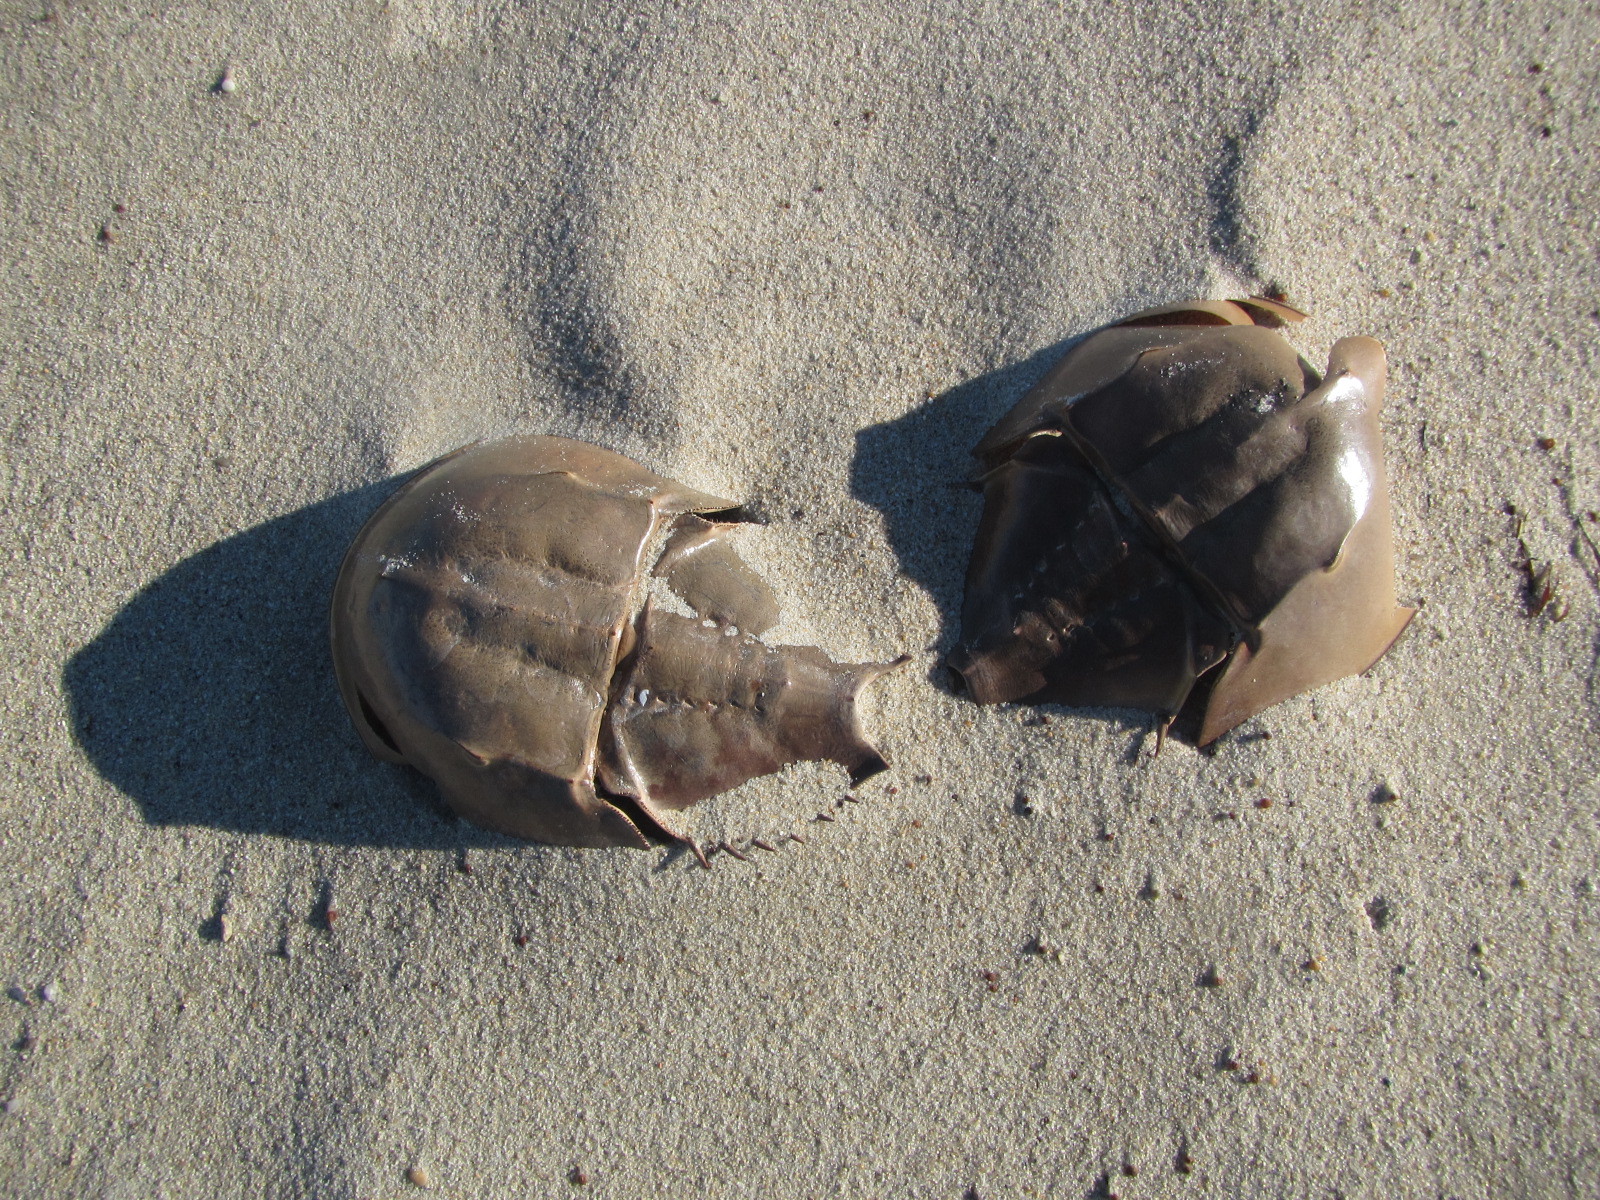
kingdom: Animalia
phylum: Arthropoda
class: Merostomata
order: Xiphosurida
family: Limulidae
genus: Limulus
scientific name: Limulus polyphemus
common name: Horseshoe crab
